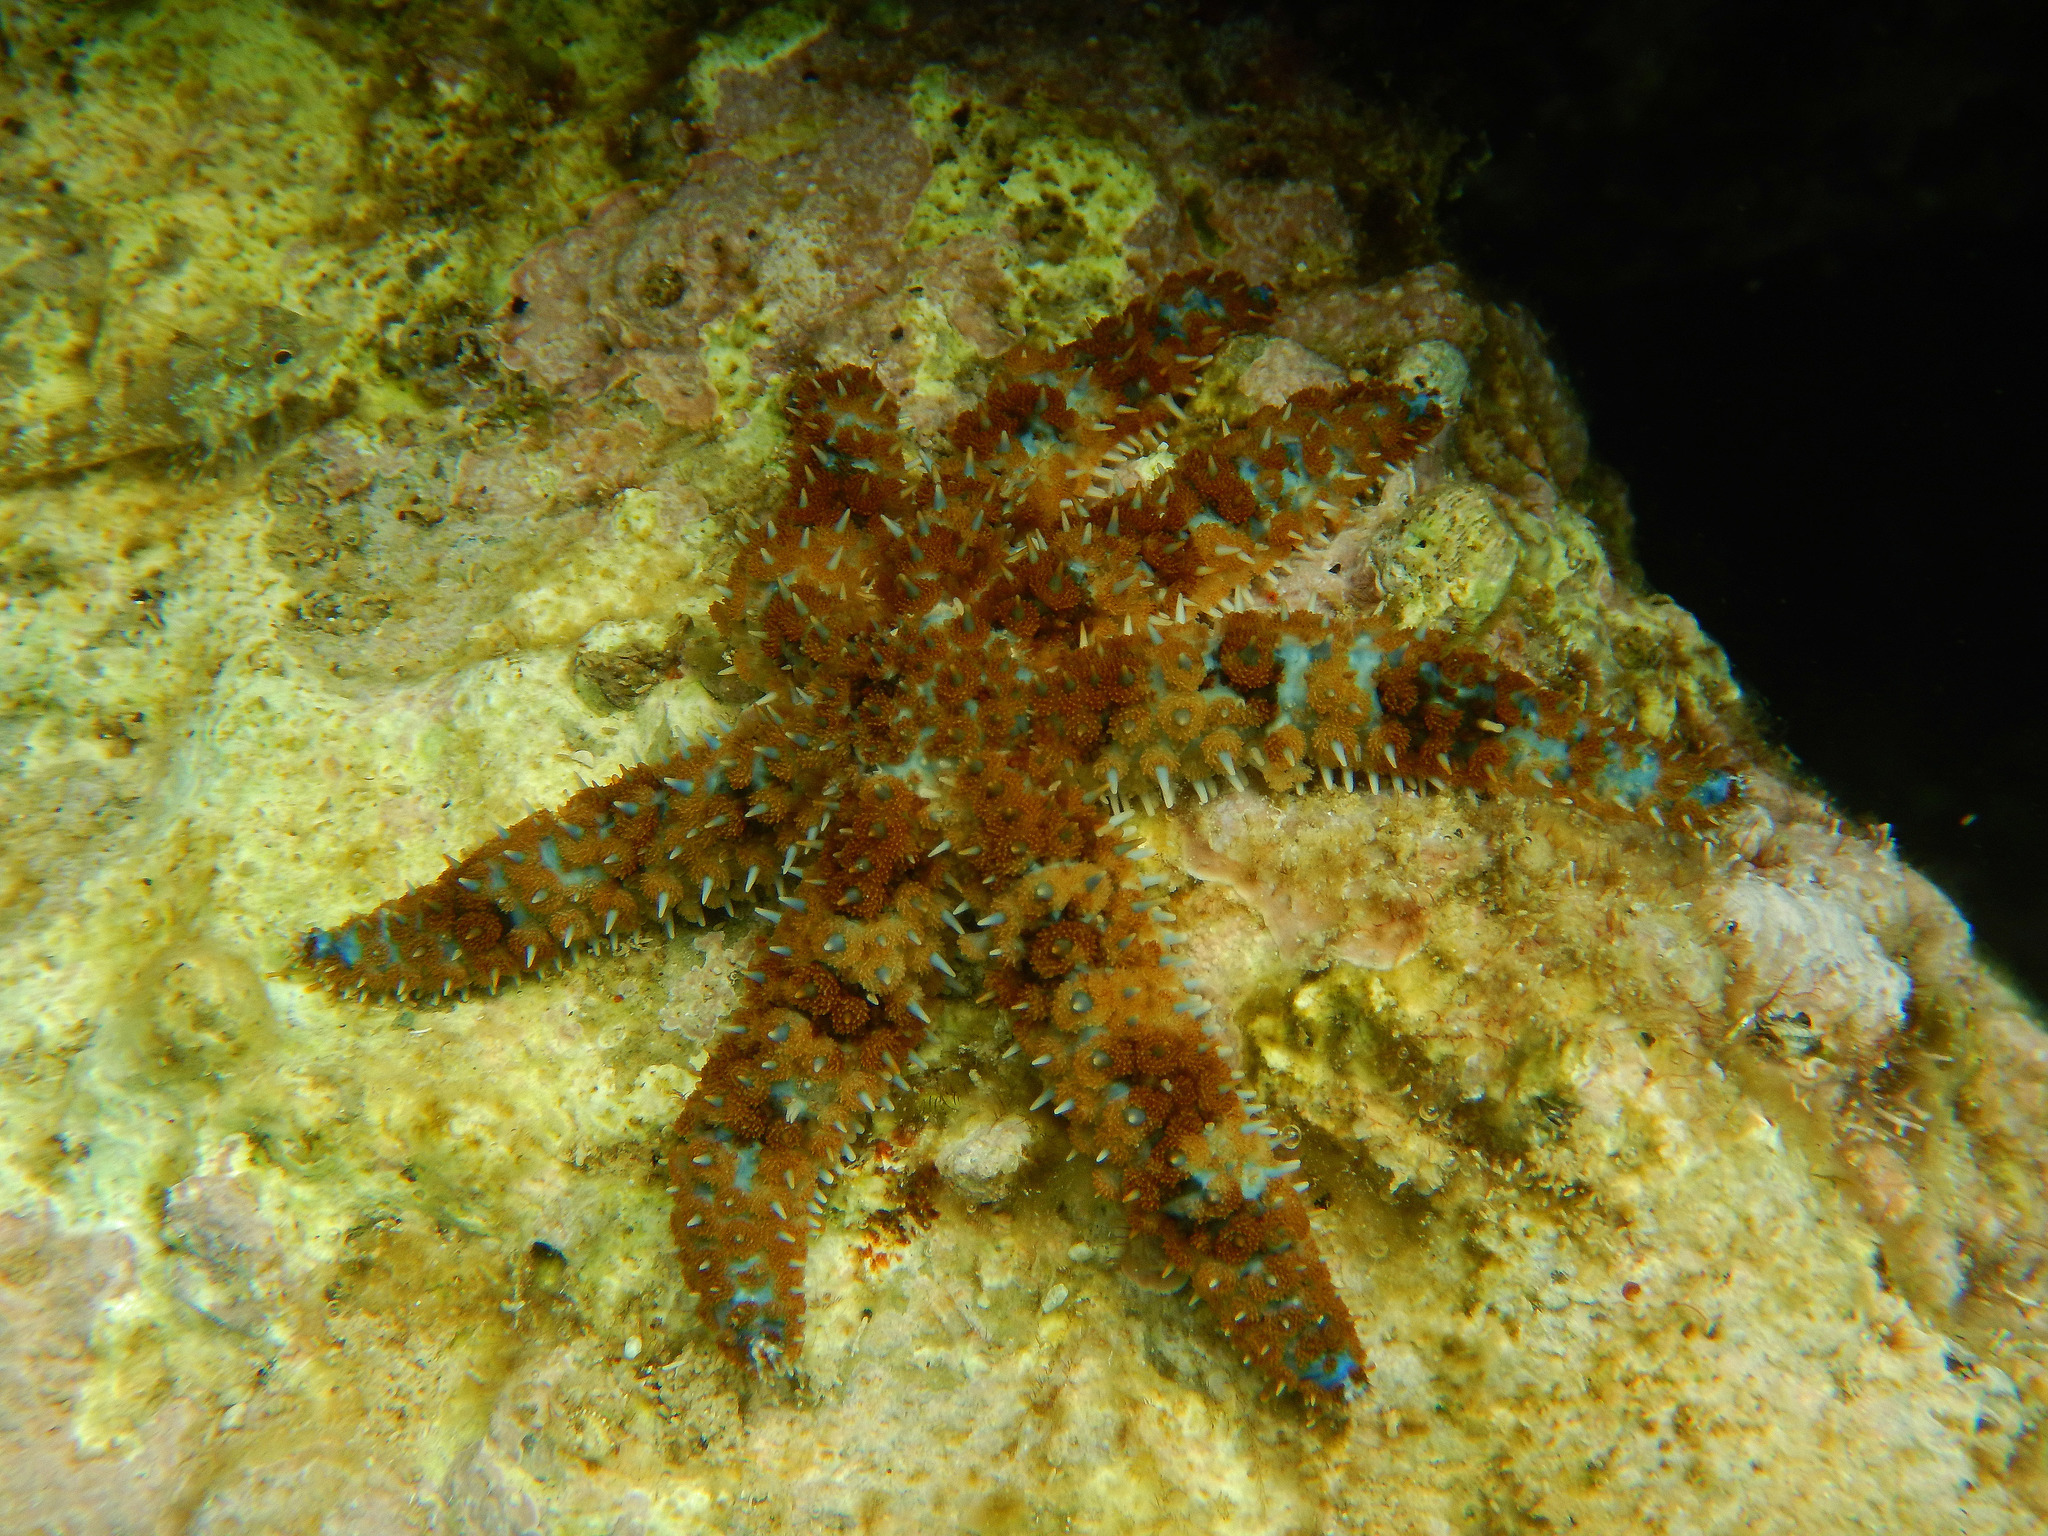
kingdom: Animalia
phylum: Echinodermata
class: Asteroidea
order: Forcipulatida
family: Asteriidae
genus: Coscinasterias
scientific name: Coscinasterias tenuispina
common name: Blue spiny starfish
